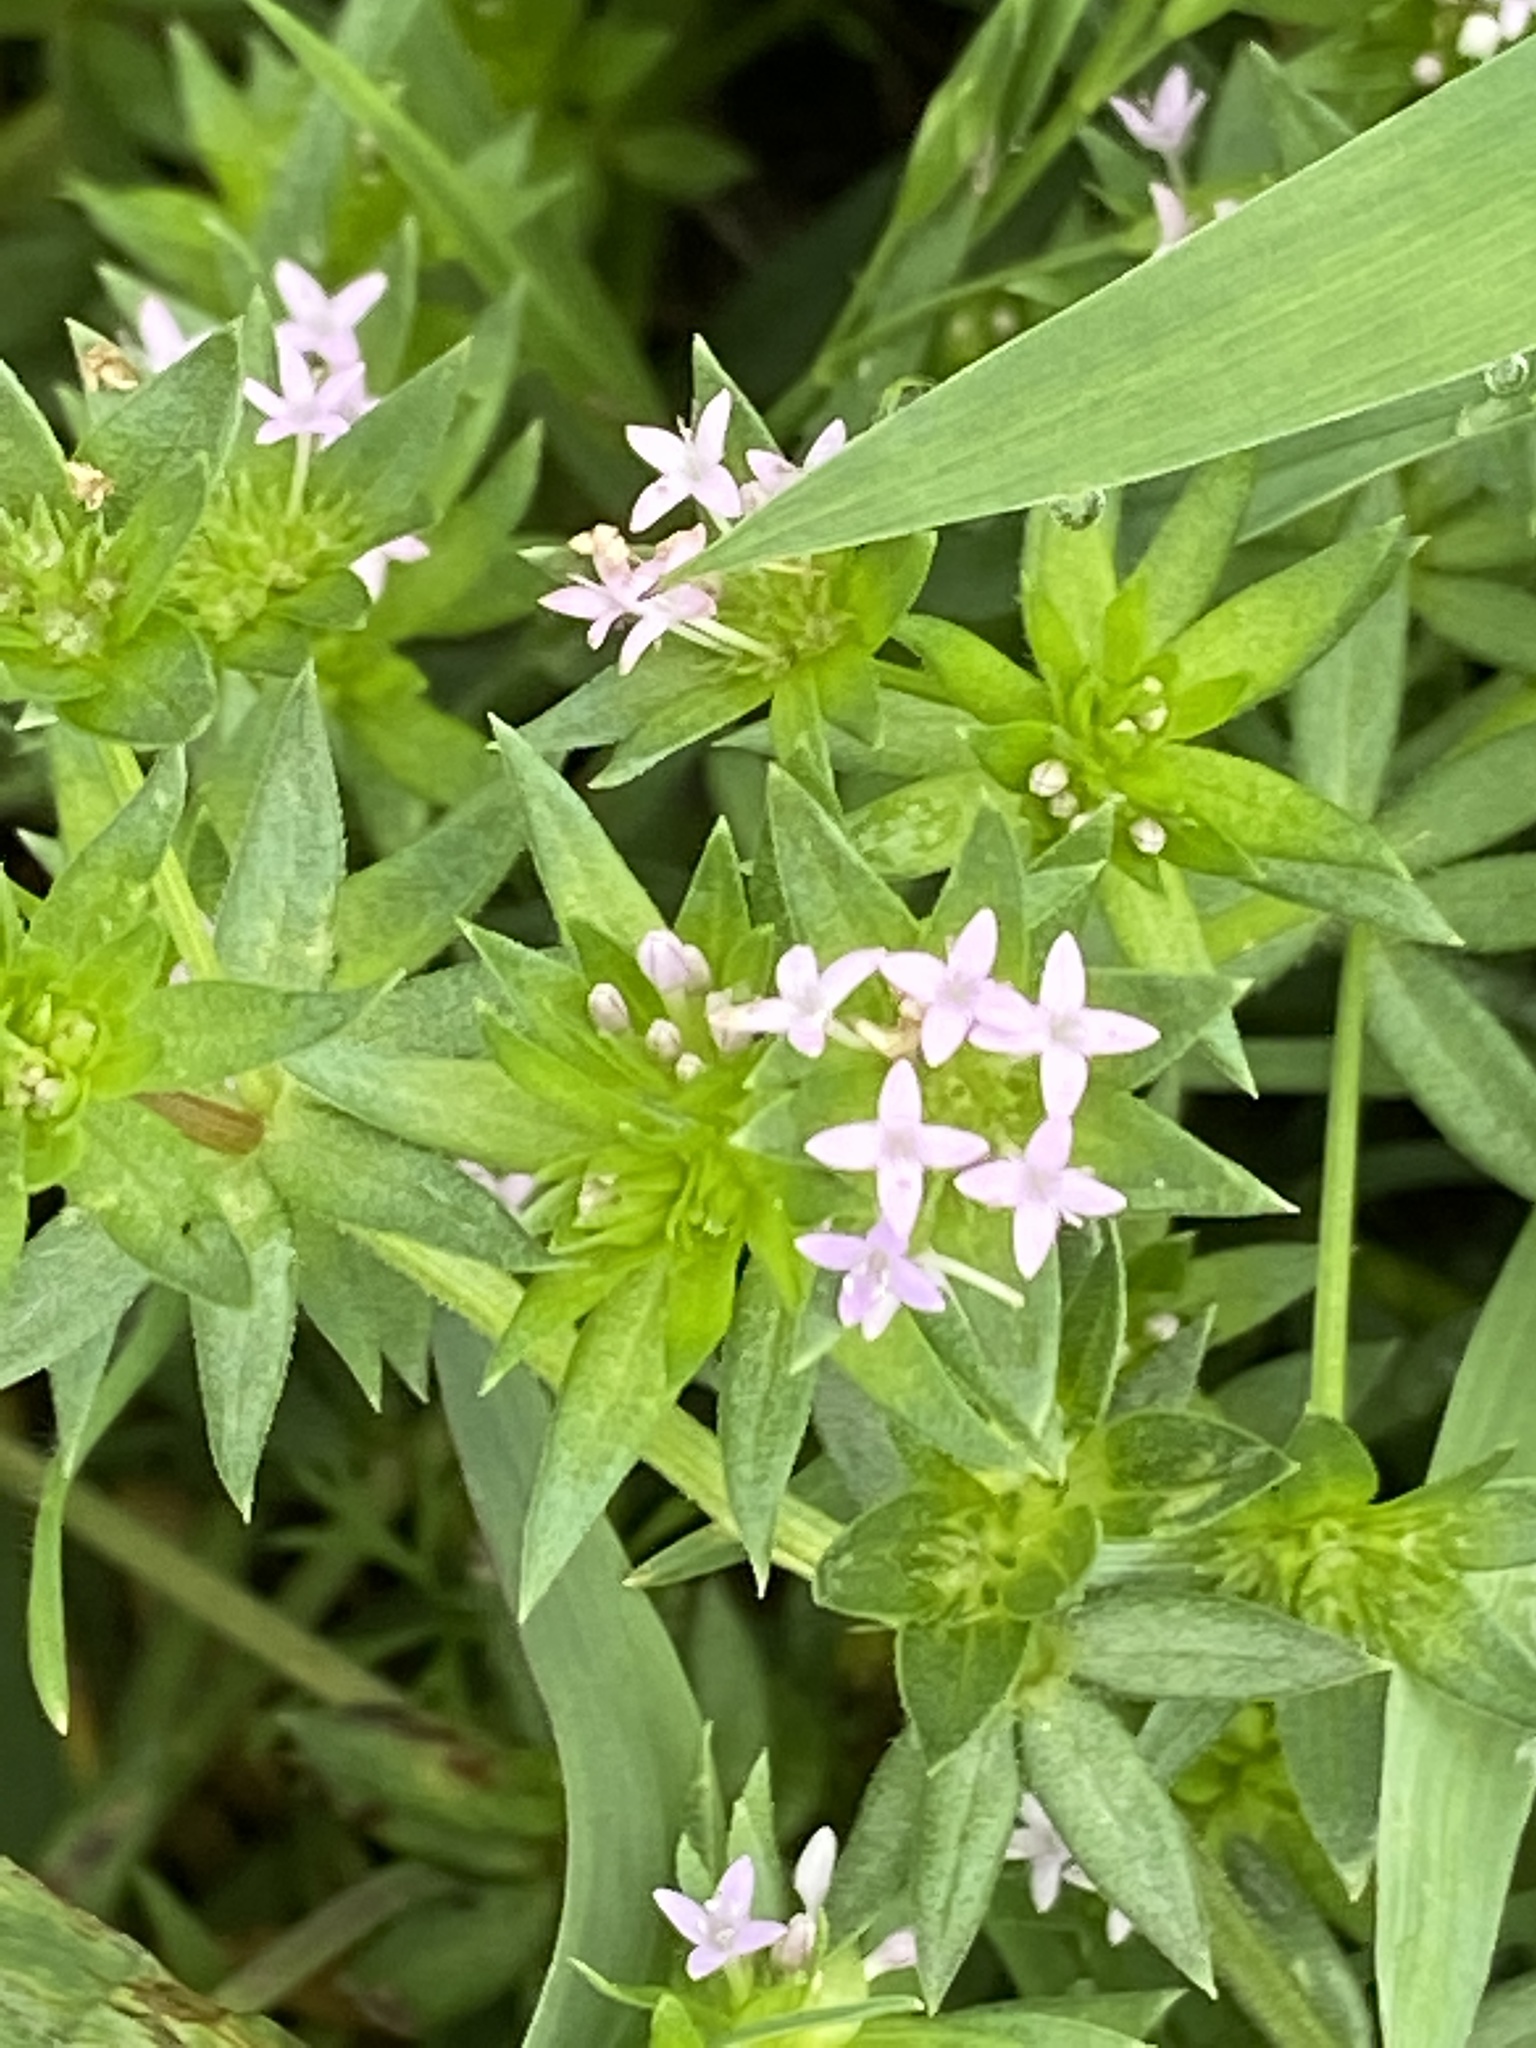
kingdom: Plantae
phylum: Tracheophyta
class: Magnoliopsida
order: Gentianales
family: Rubiaceae
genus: Sherardia
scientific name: Sherardia arvensis
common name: Field madder
